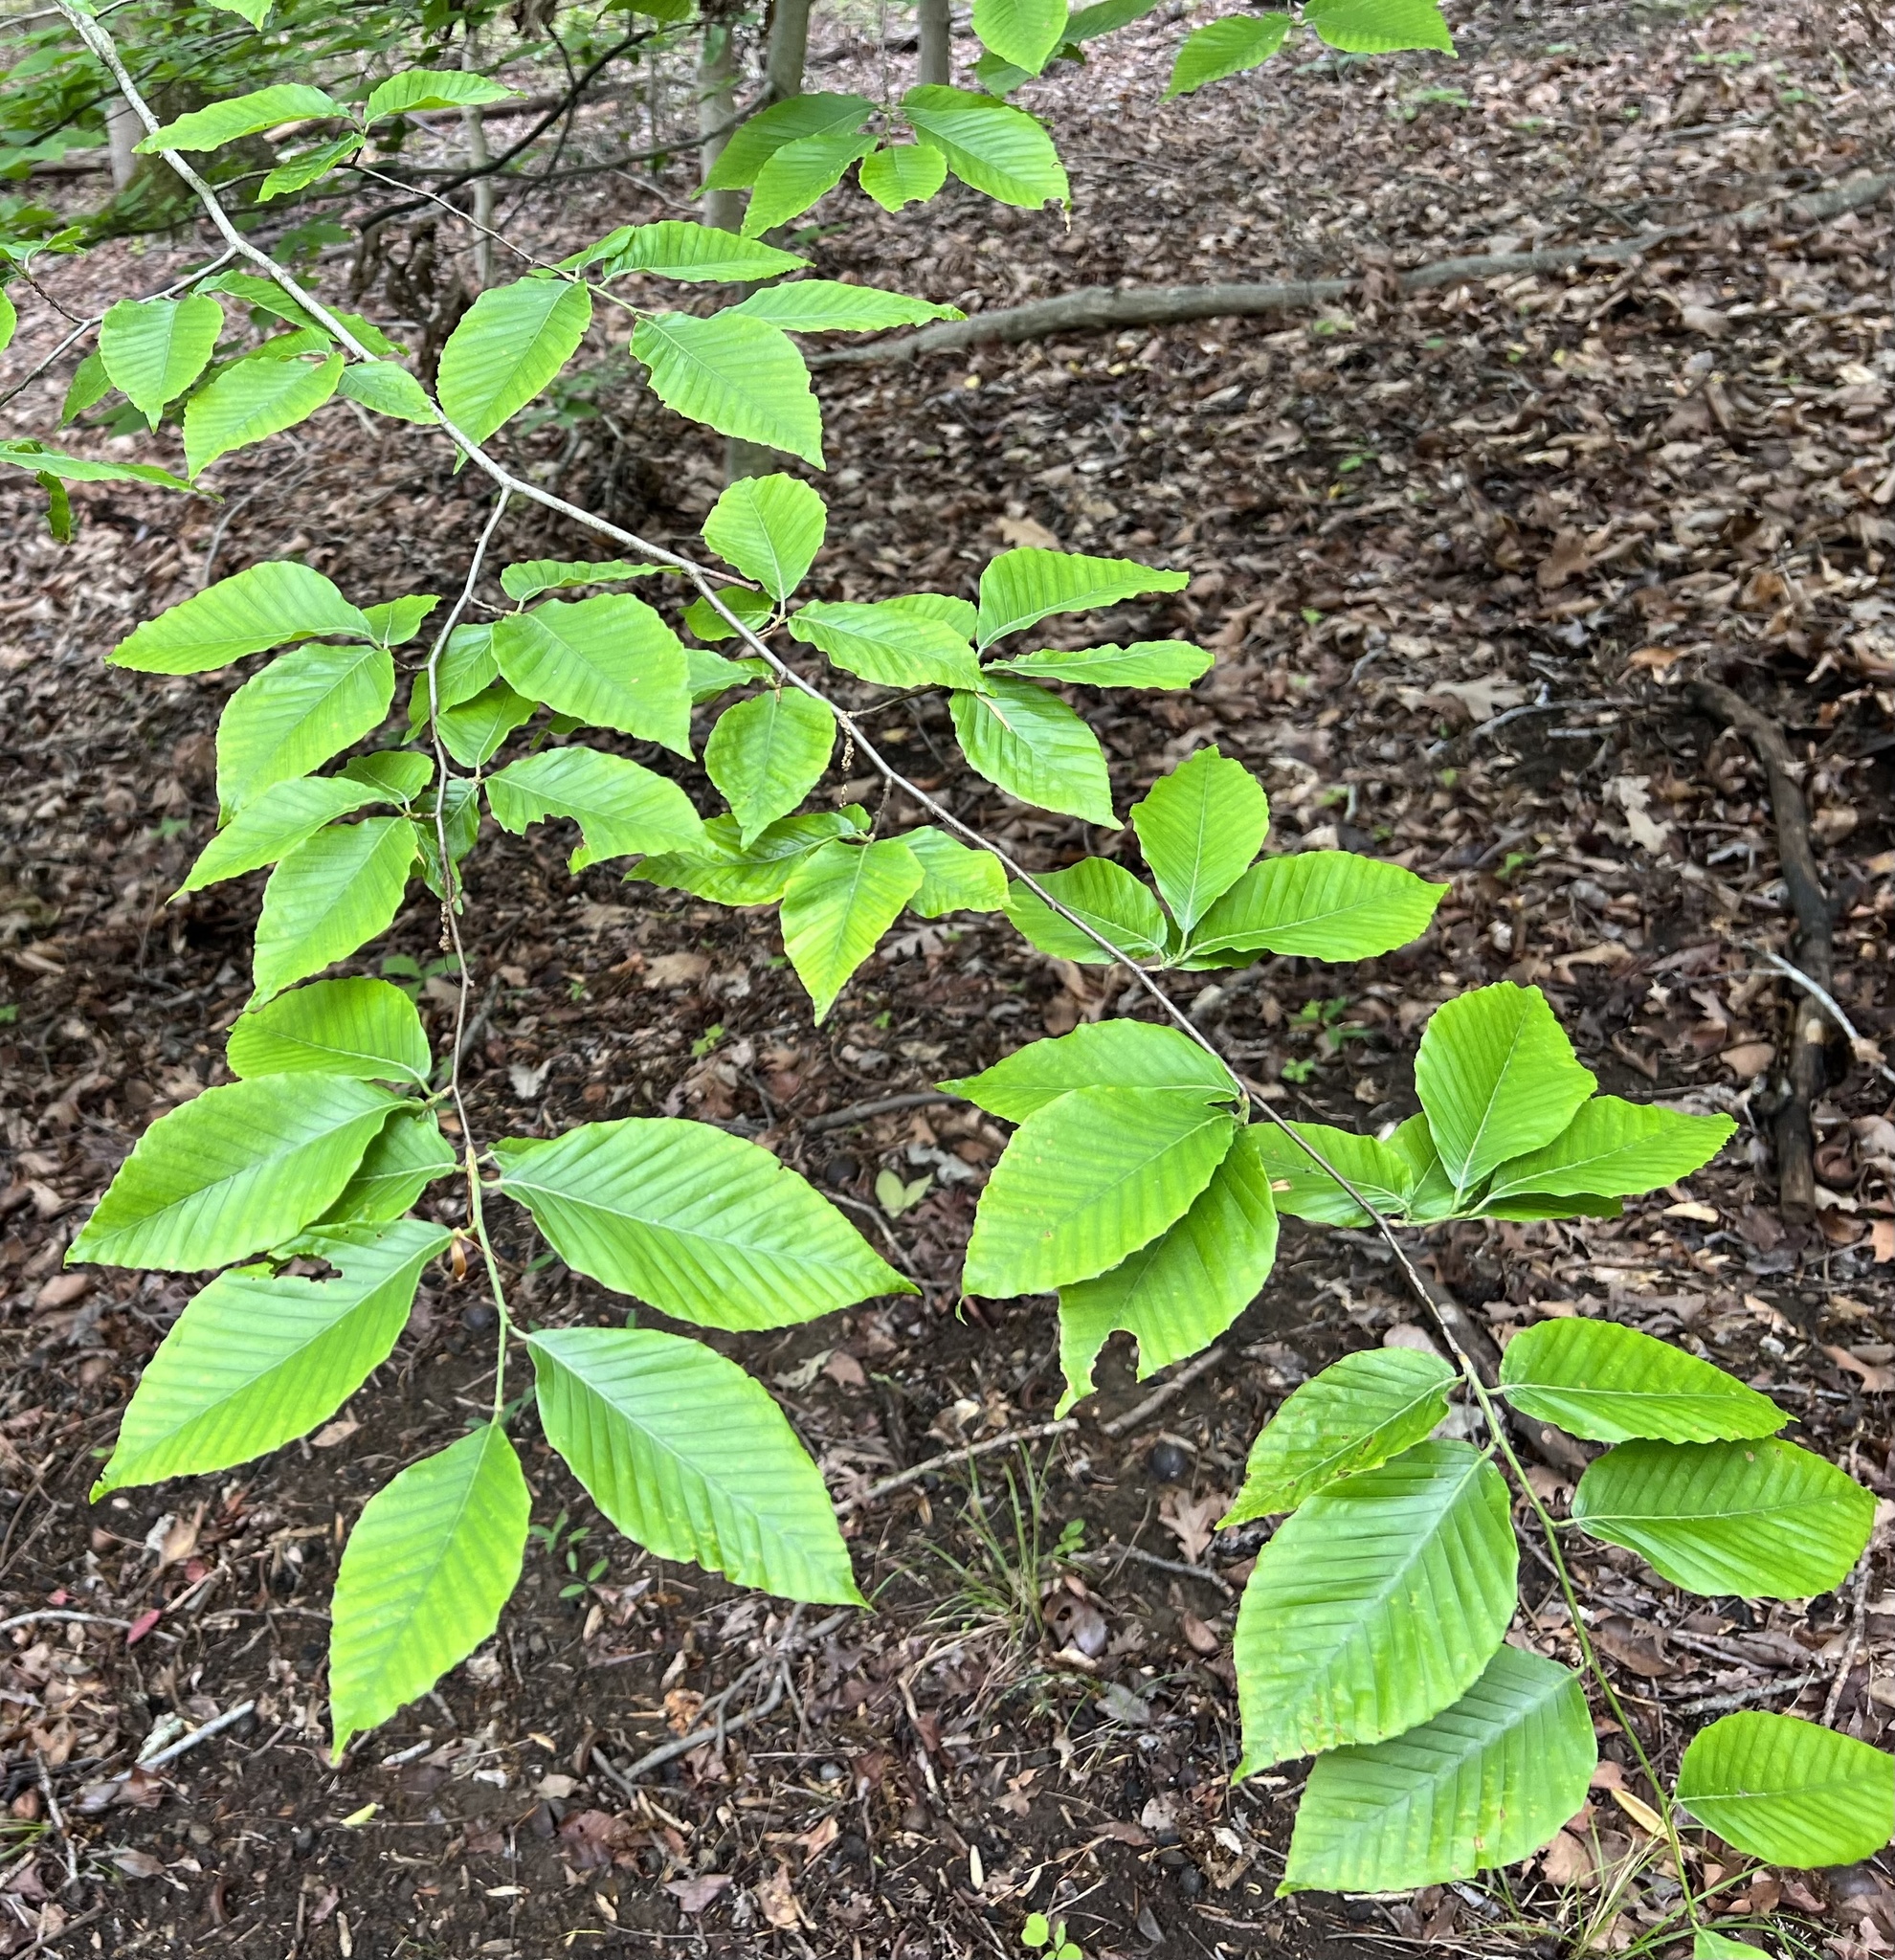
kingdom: Plantae
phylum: Tracheophyta
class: Magnoliopsida
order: Fagales
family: Fagaceae
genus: Fagus
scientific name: Fagus grandifolia
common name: American beech
